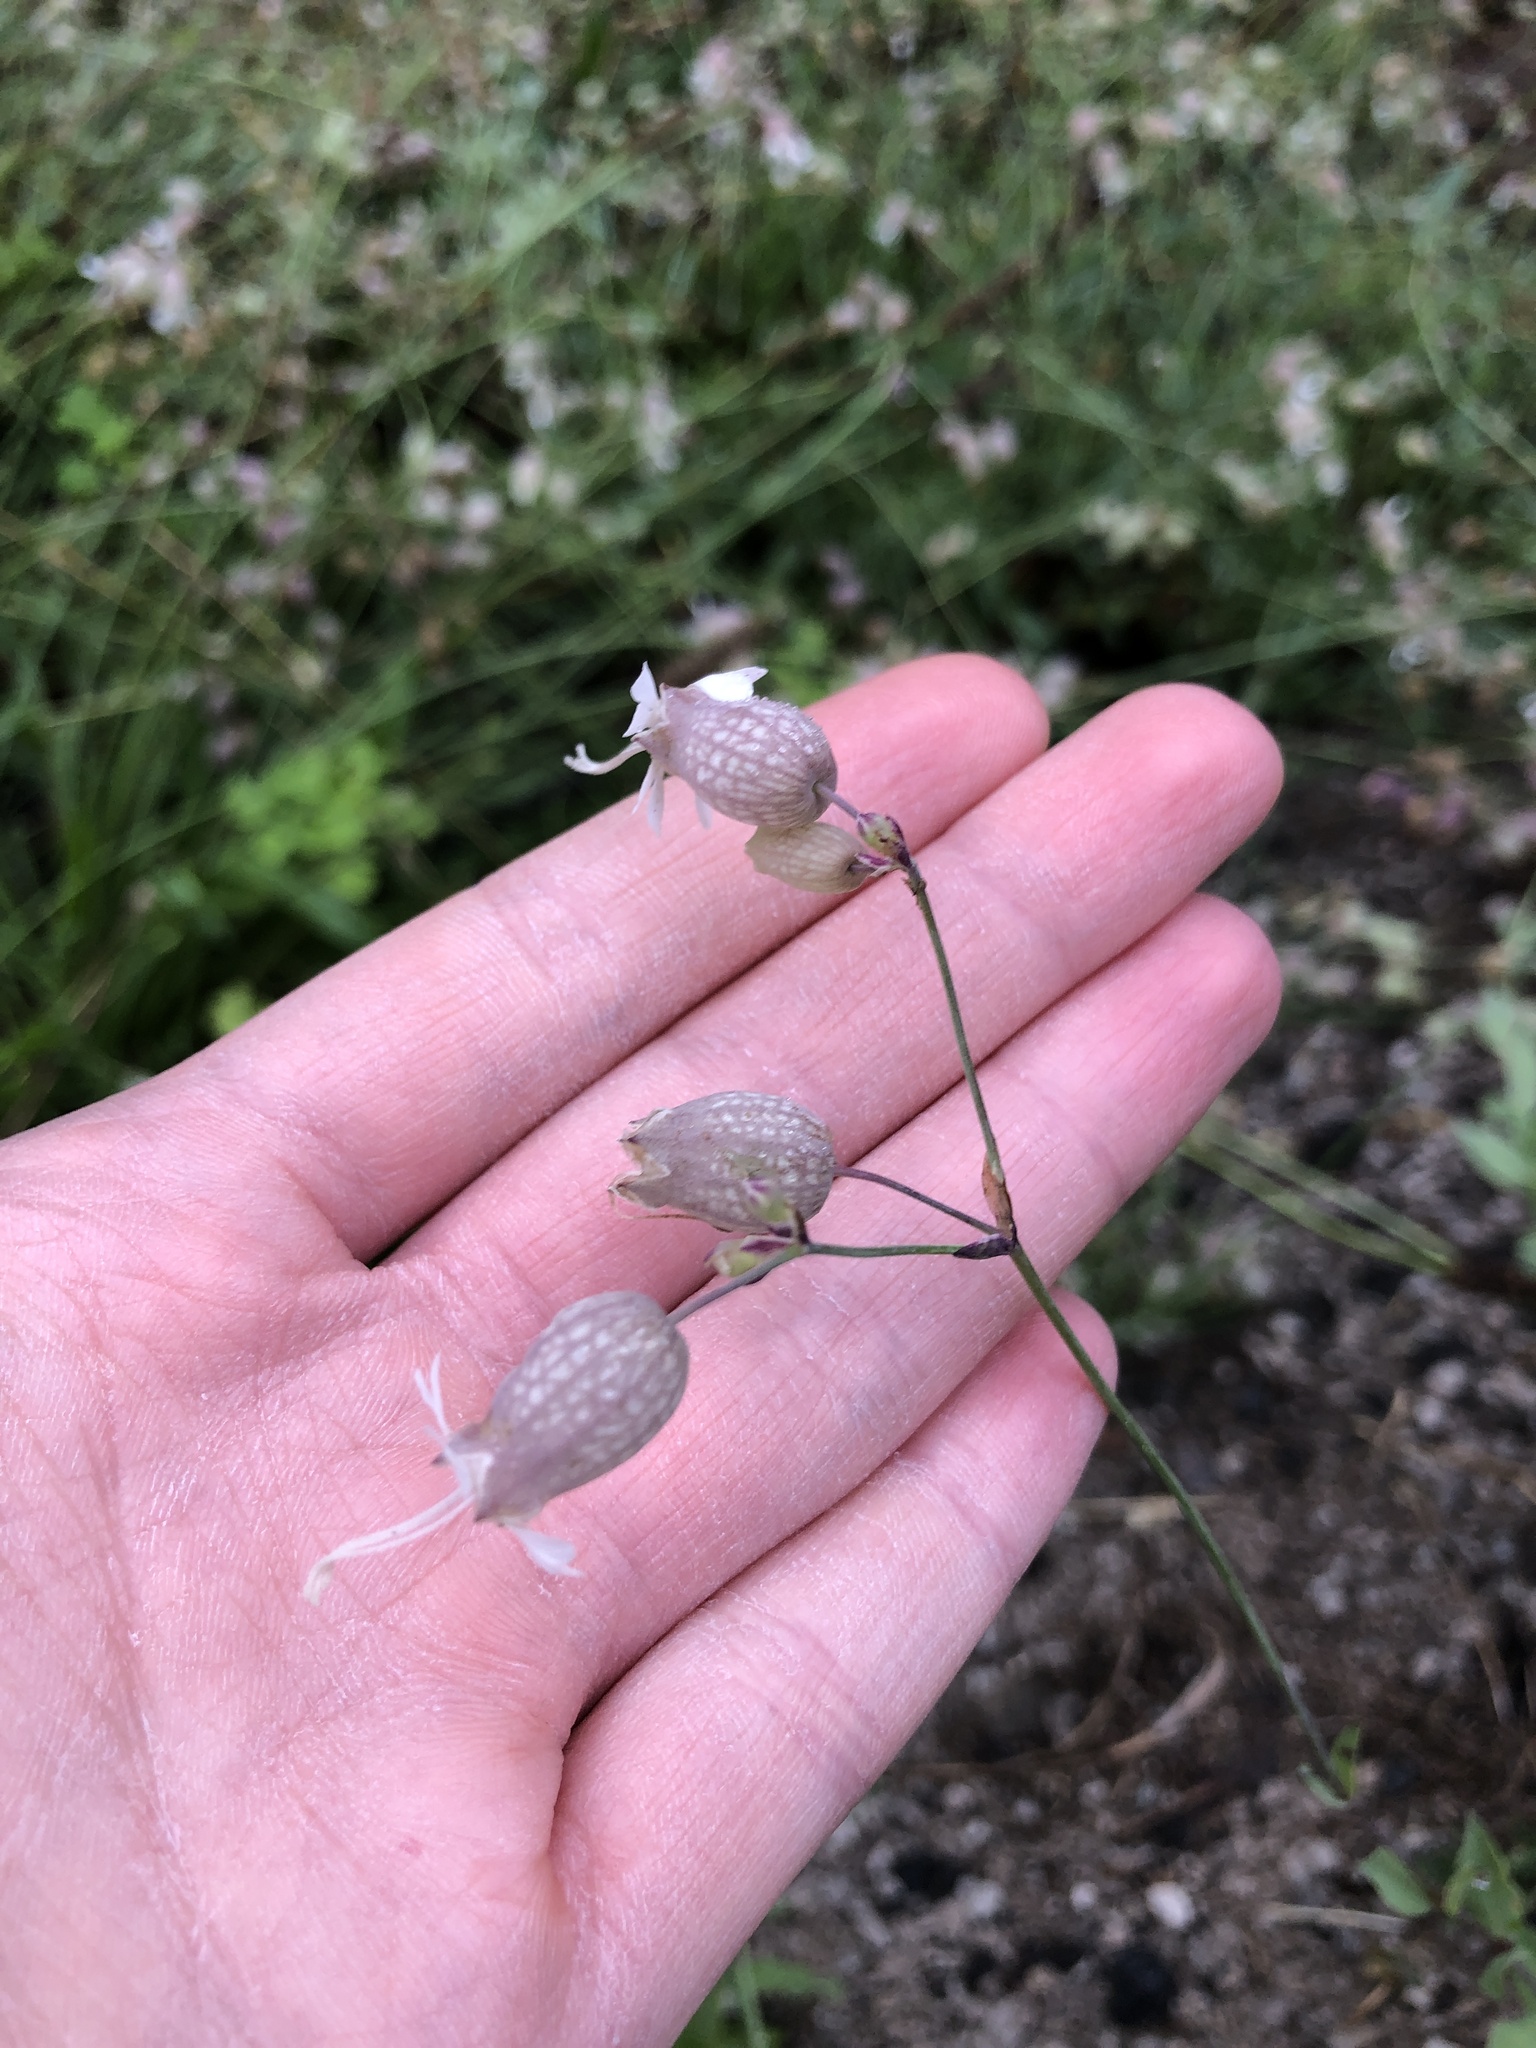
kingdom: Plantae
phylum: Tracheophyta
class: Magnoliopsida
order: Caryophyllales
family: Caryophyllaceae
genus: Silene
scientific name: Silene vulgaris
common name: Bladder campion
